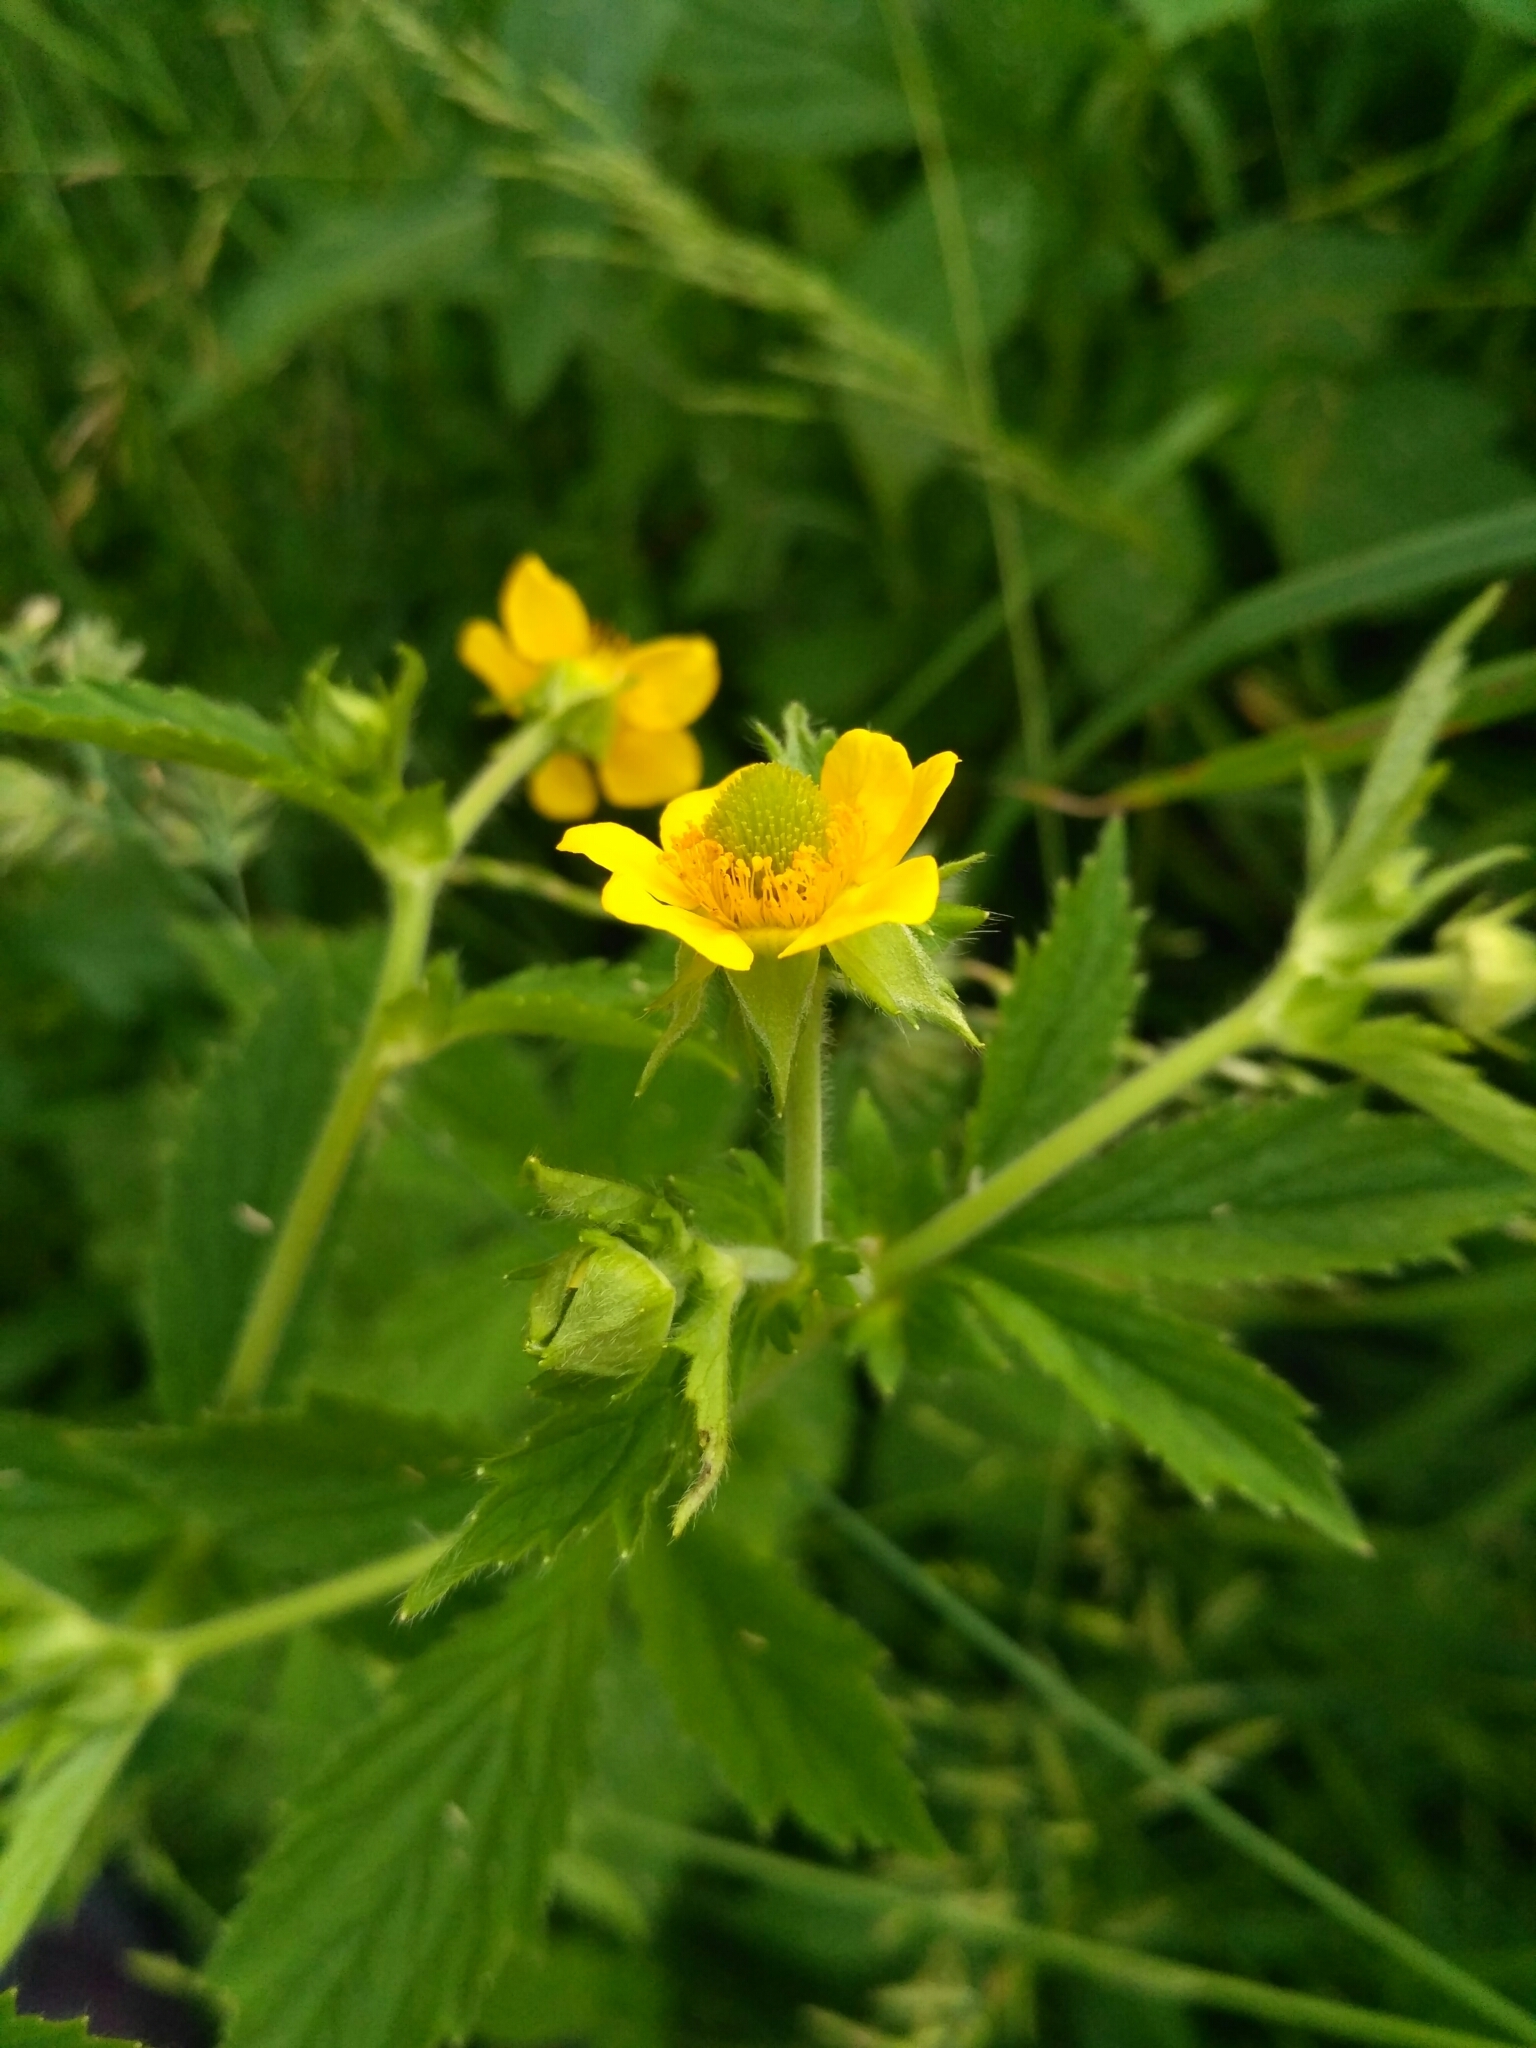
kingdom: Plantae
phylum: Tracheophyta
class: Magnoliopsida
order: Rosales
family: Rosaceae
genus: Geum
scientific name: Geum aleppicum
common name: Yellow avens
